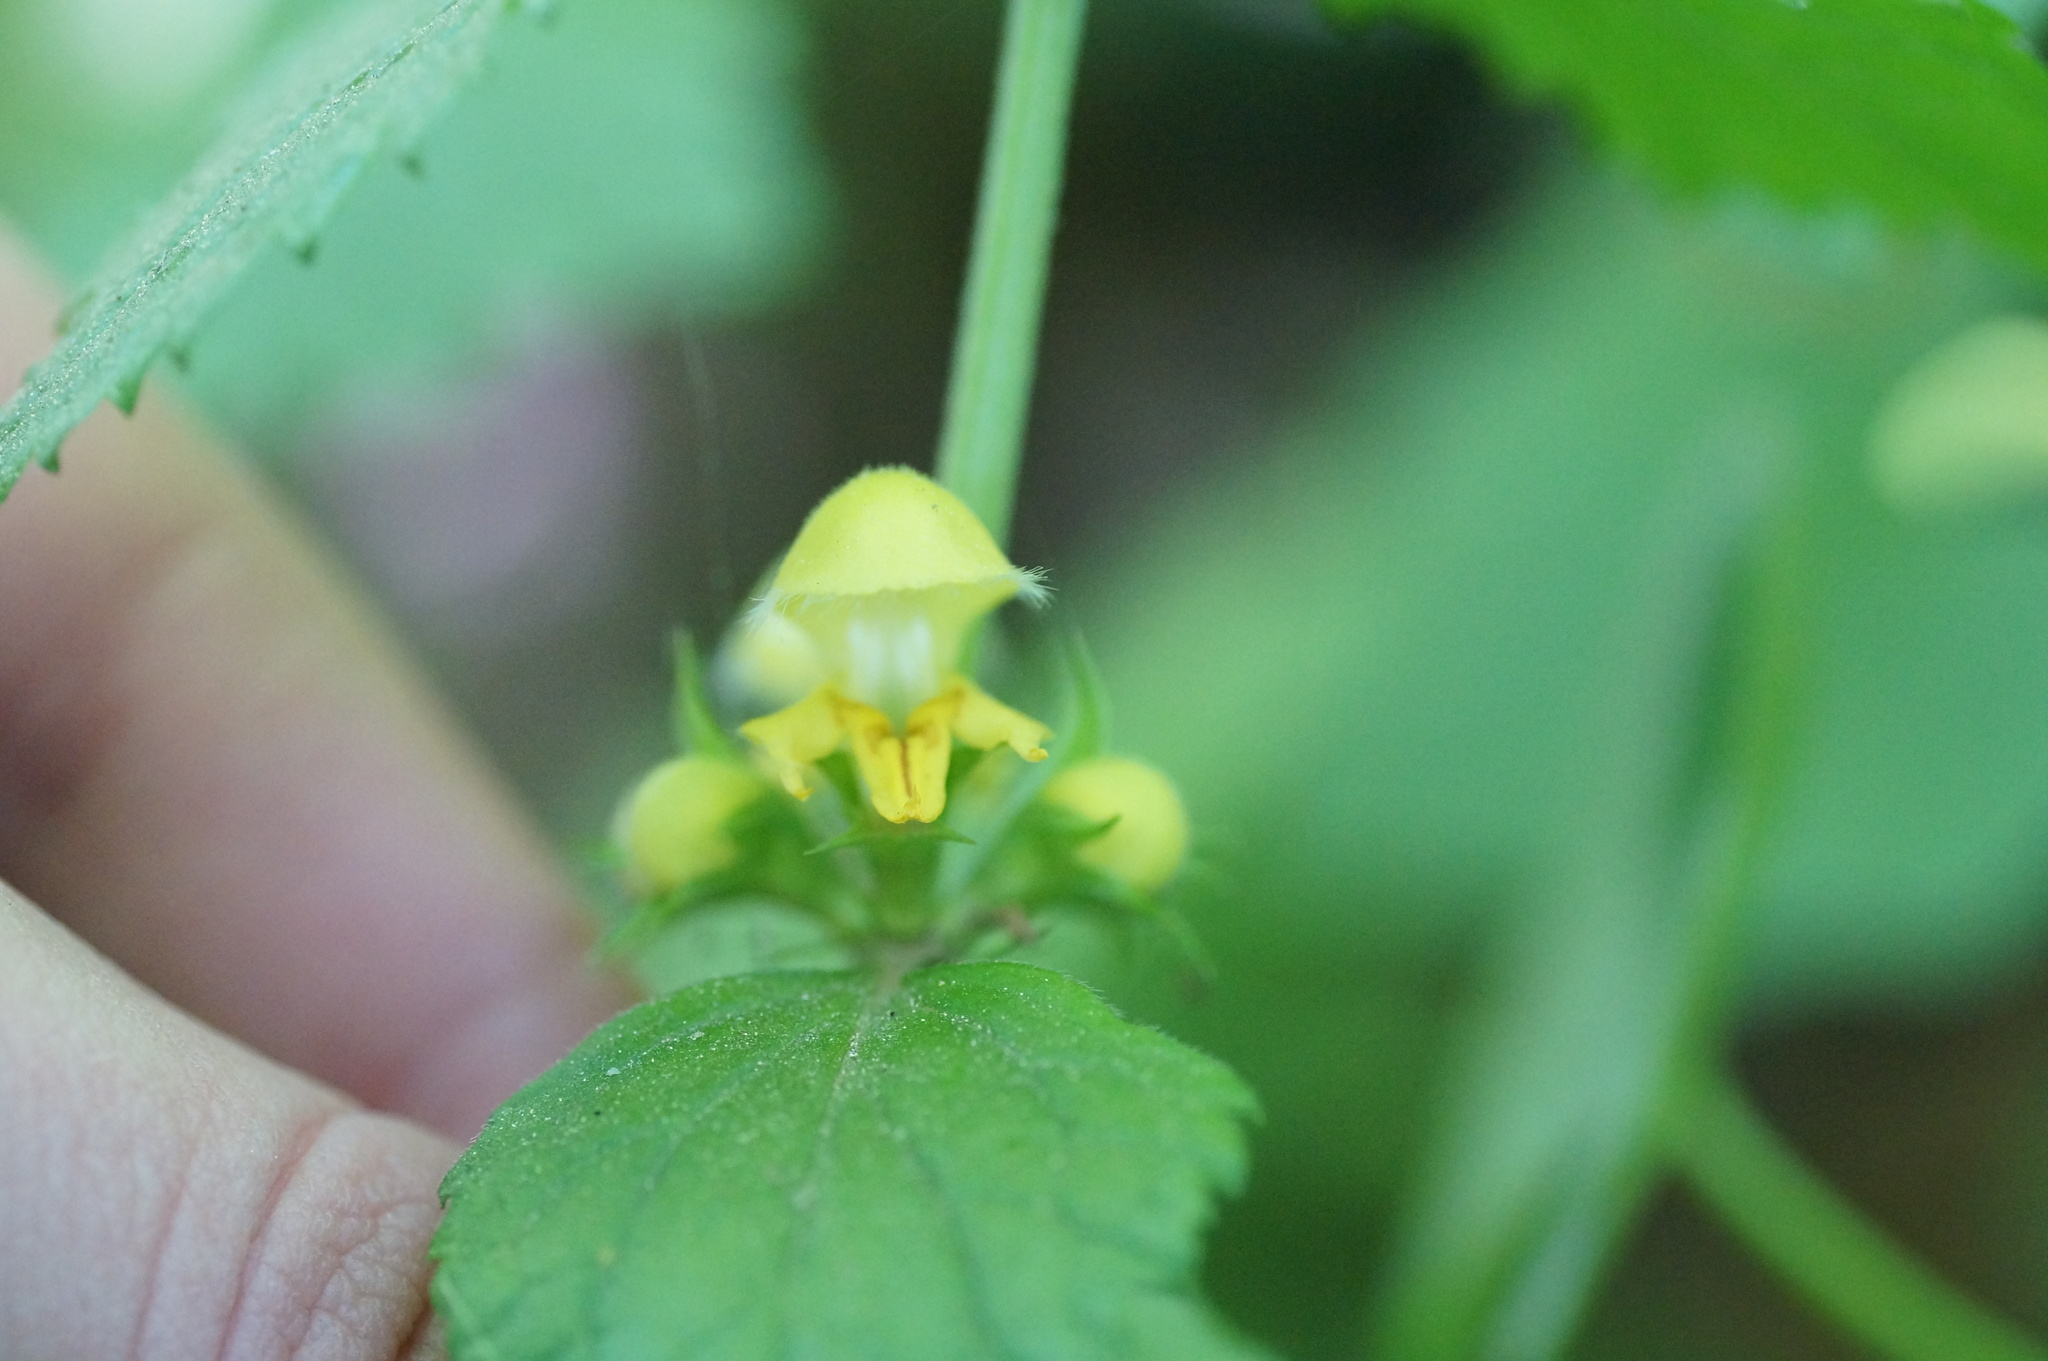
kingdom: Plantae
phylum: Tracheophyta
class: Magnoliopsida
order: Lamiales
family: Lamiaceae
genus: Lamium
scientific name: Lamium galeobdolon
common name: Yellow archangel
